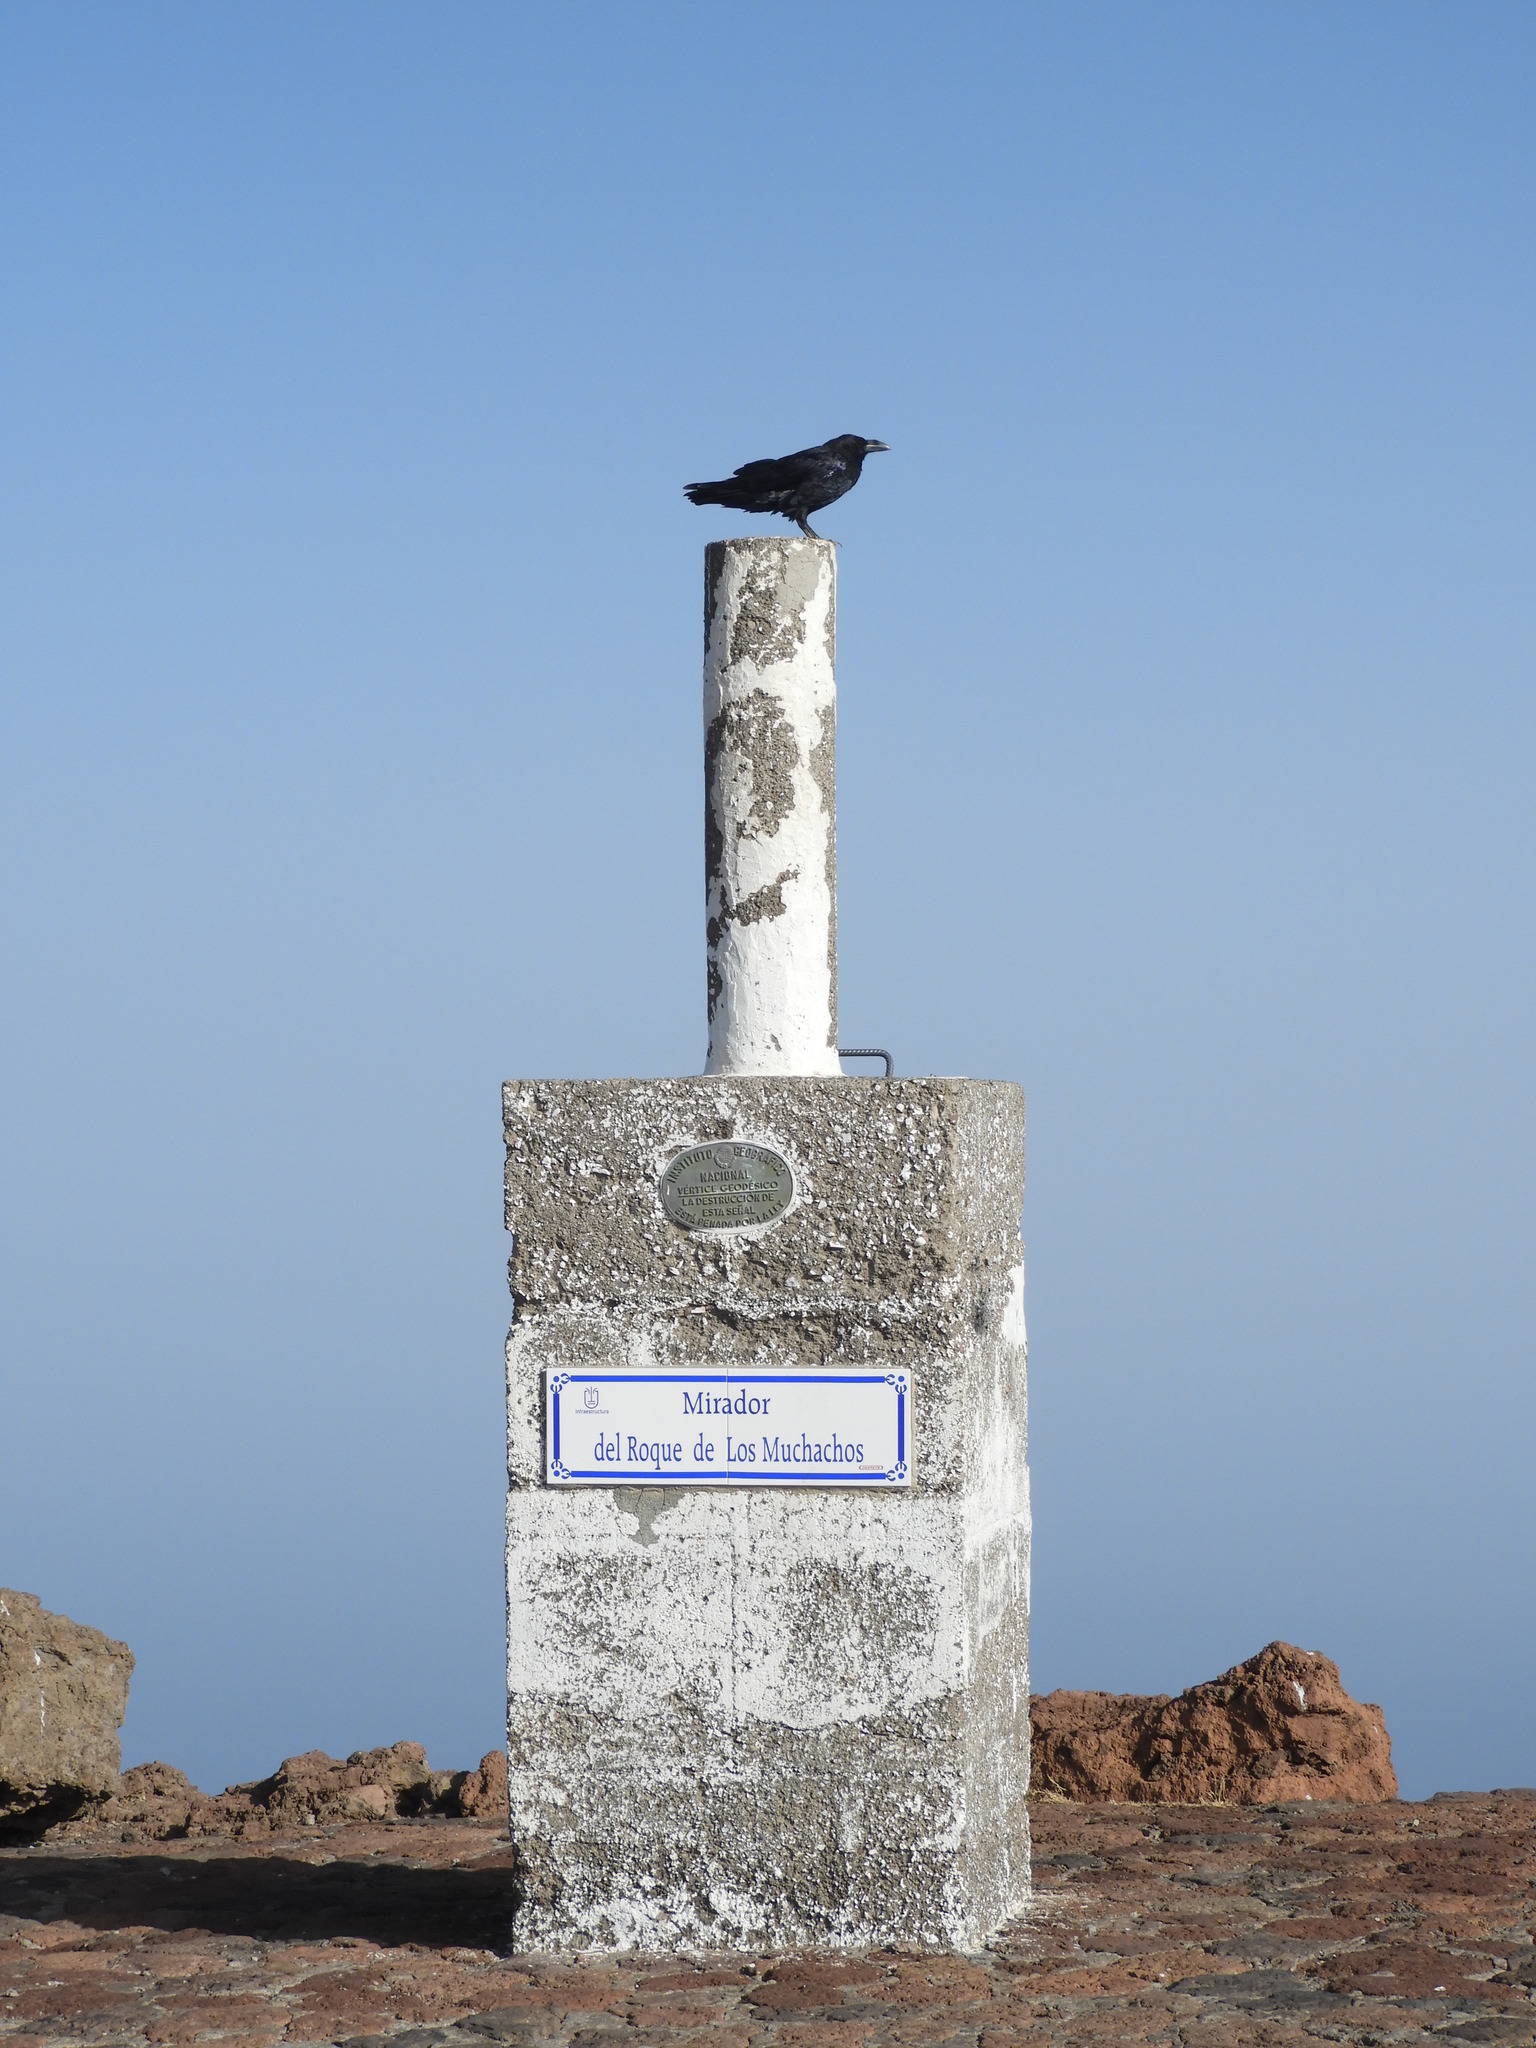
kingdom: Animalia
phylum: Chordata
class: Aves
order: Passeriformes
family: Corvidae
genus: Corvus
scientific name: Corvus corax
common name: Common raven
